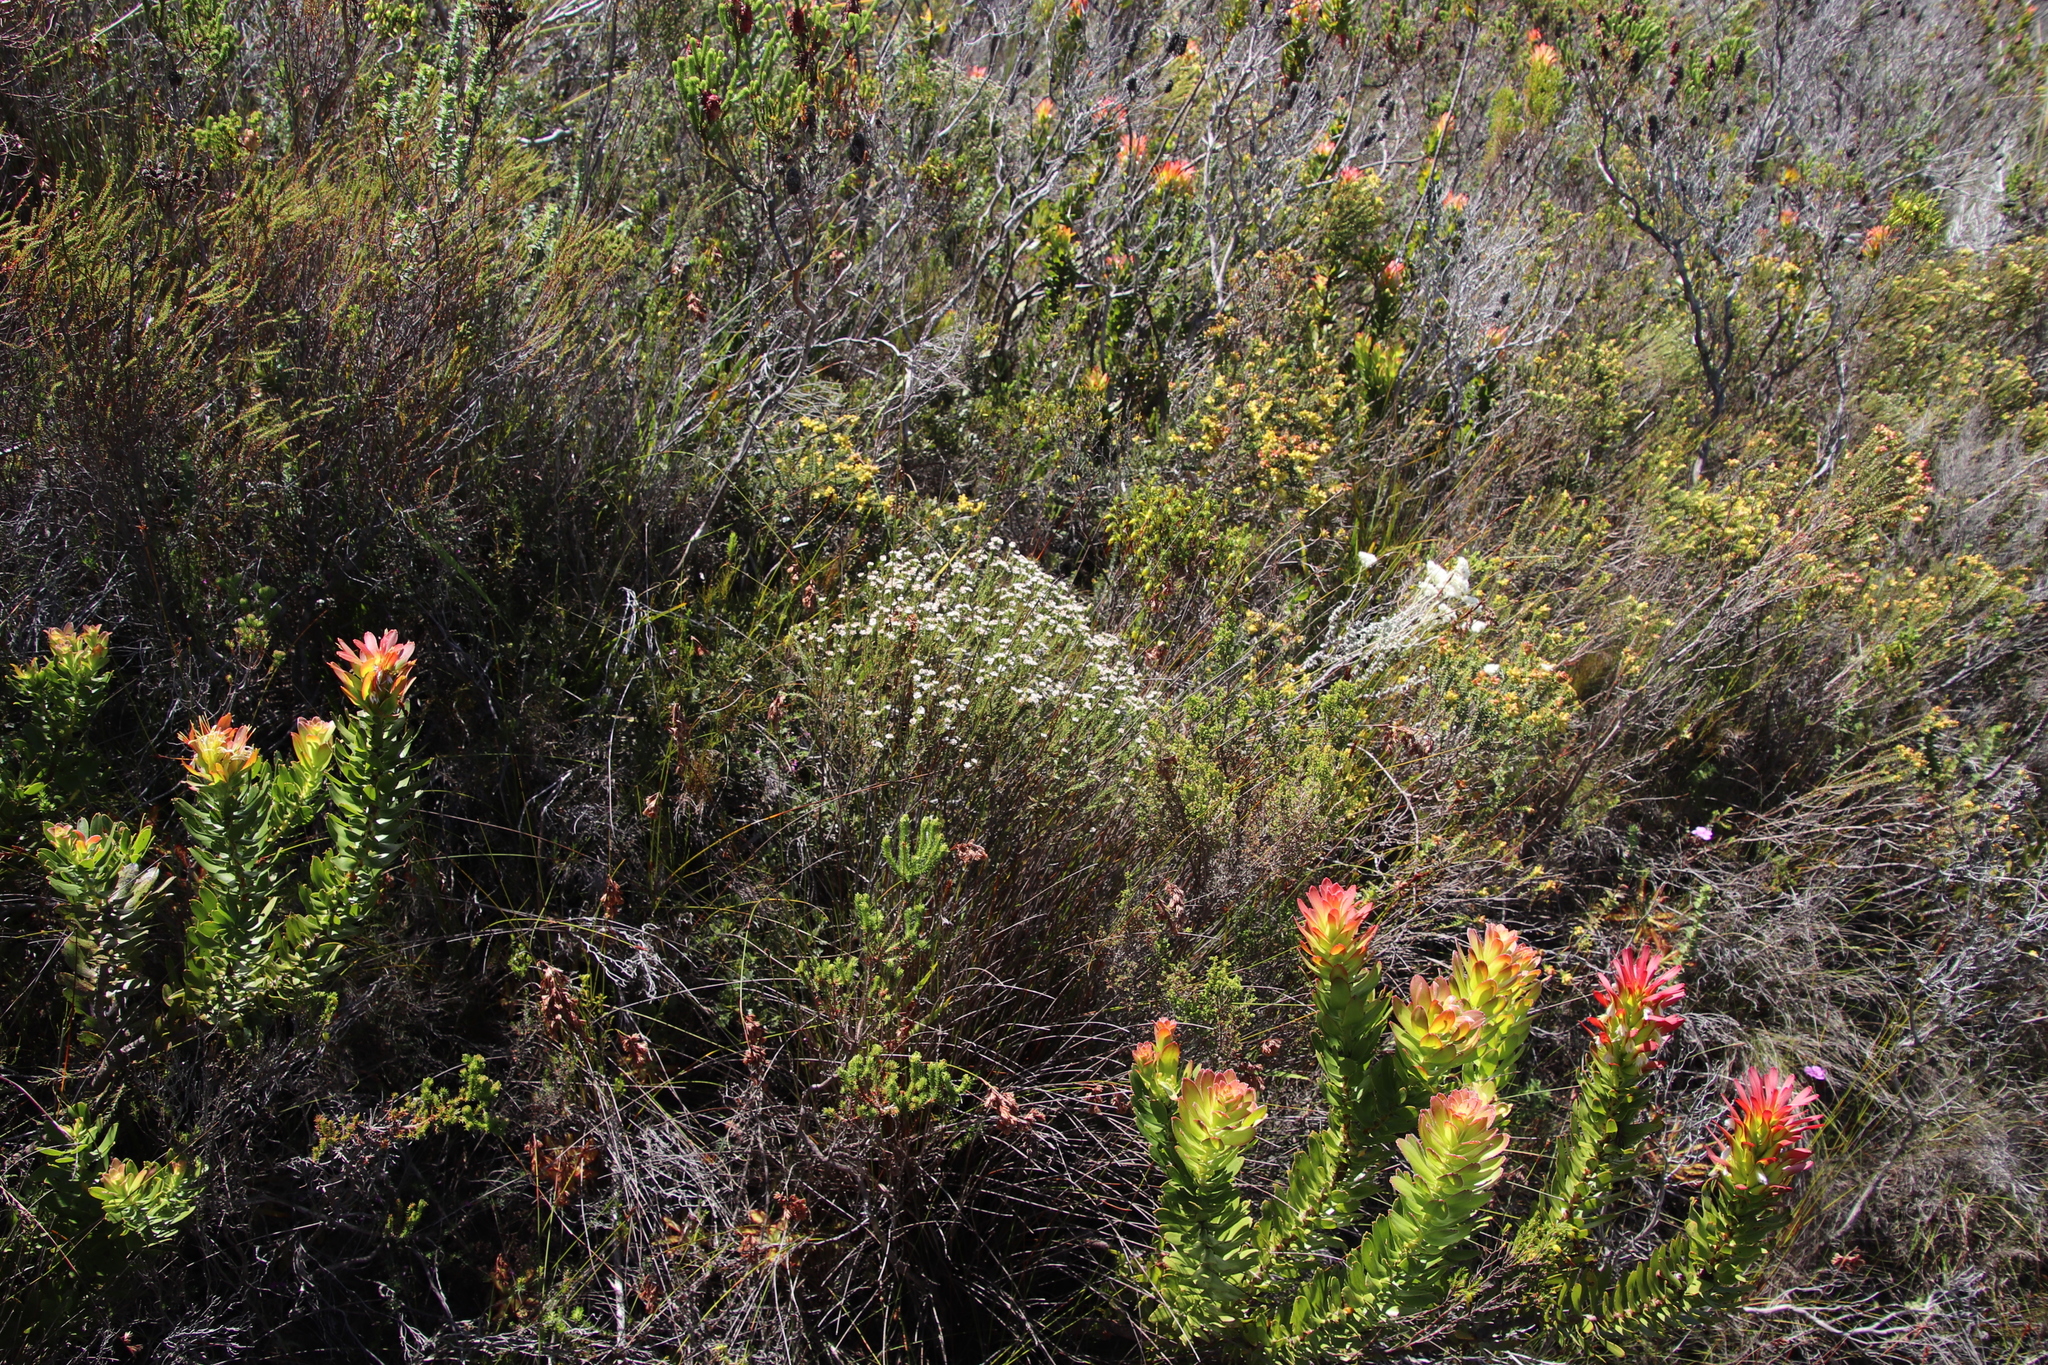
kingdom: Plantae
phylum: Tracheophyta
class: Magnoliopsida
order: Bruniales
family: Bruniaceae
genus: Staavia
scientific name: Staavia radiata
